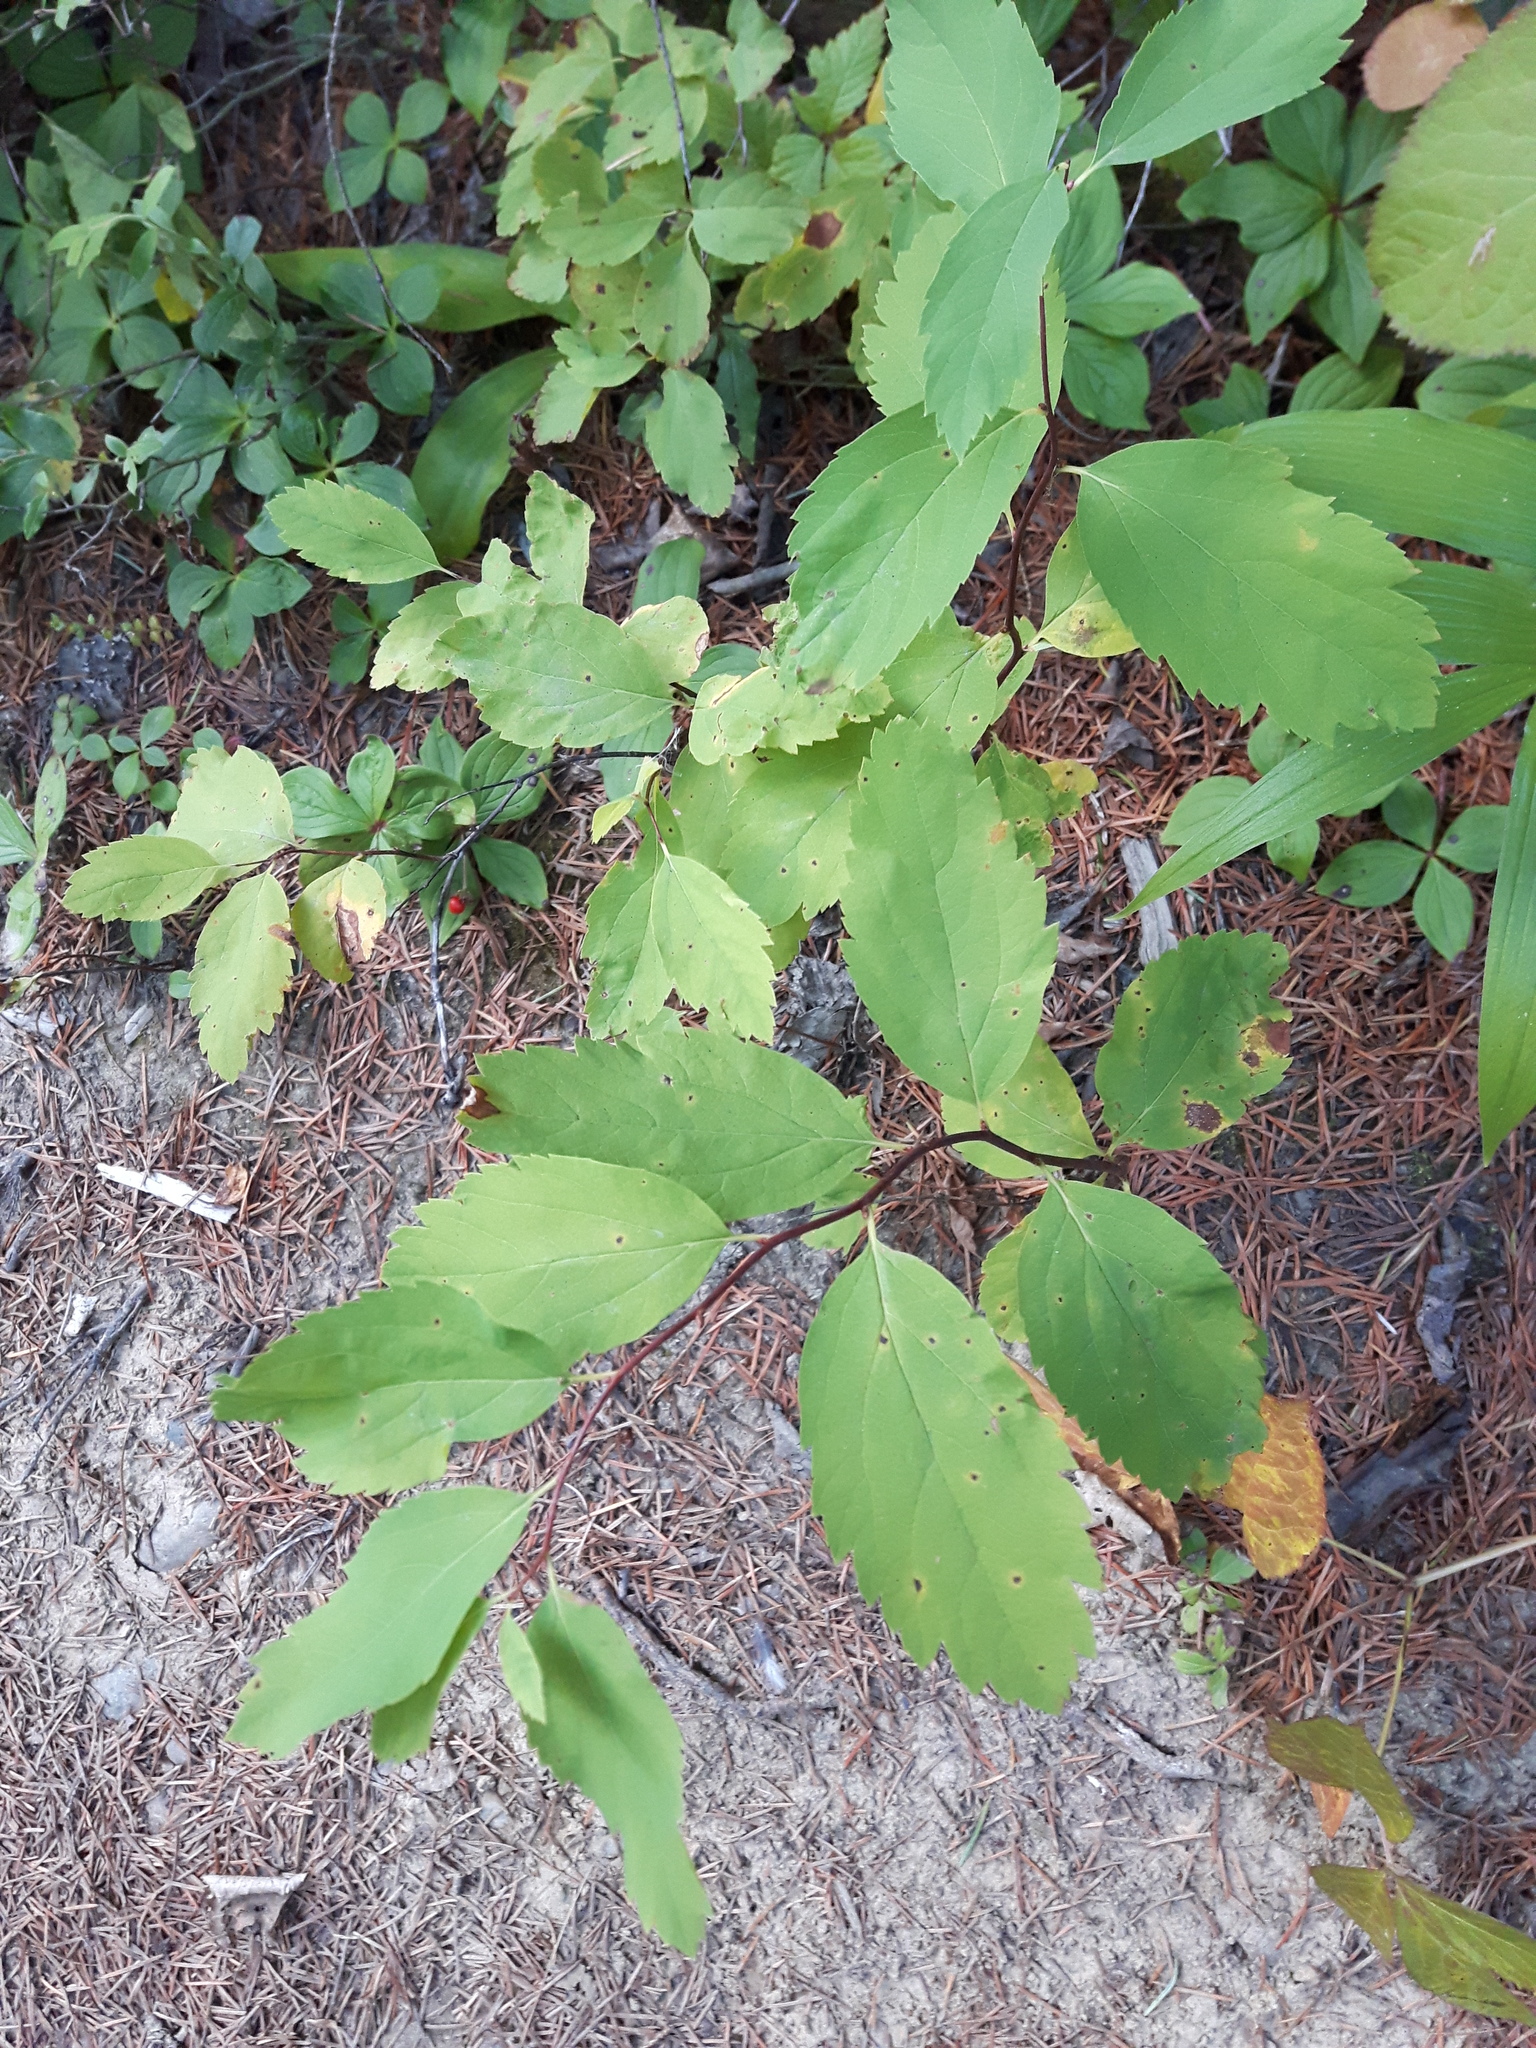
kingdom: Plantae
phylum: Tracheophyta
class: Magnoliopsida
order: Rosales
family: Rosaceae
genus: Spiraea
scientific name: Spiraea lucida
